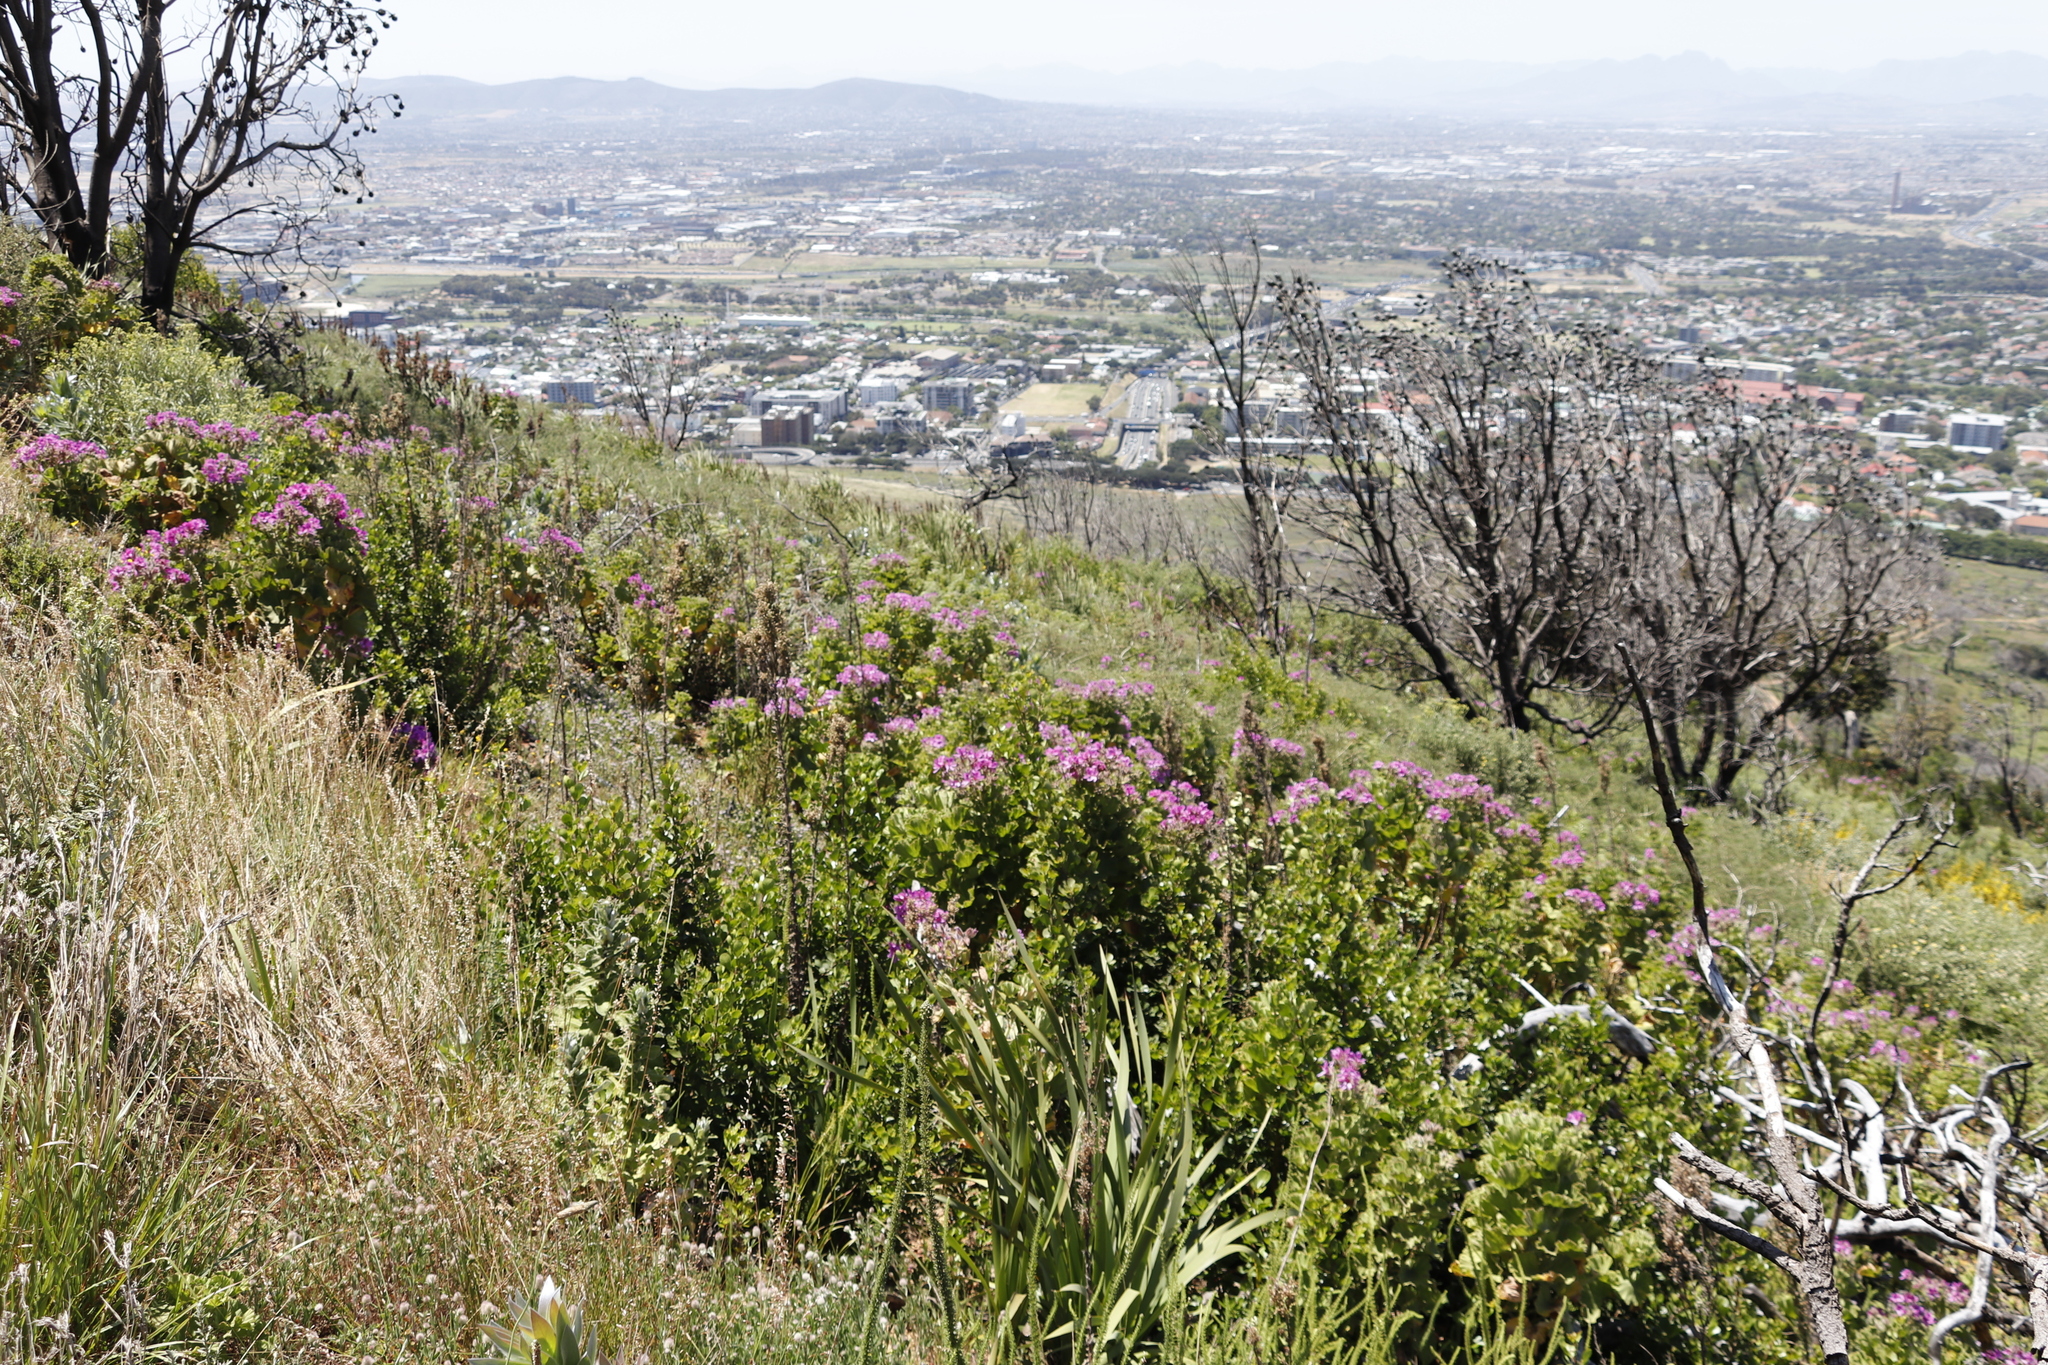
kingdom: Plantae
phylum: Tracheophyta
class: Magnoliopsida
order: Geraniales
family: Geraniaceae
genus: Pelargonium
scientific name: Pelargonium cucullatum
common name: Tree pelargonium
